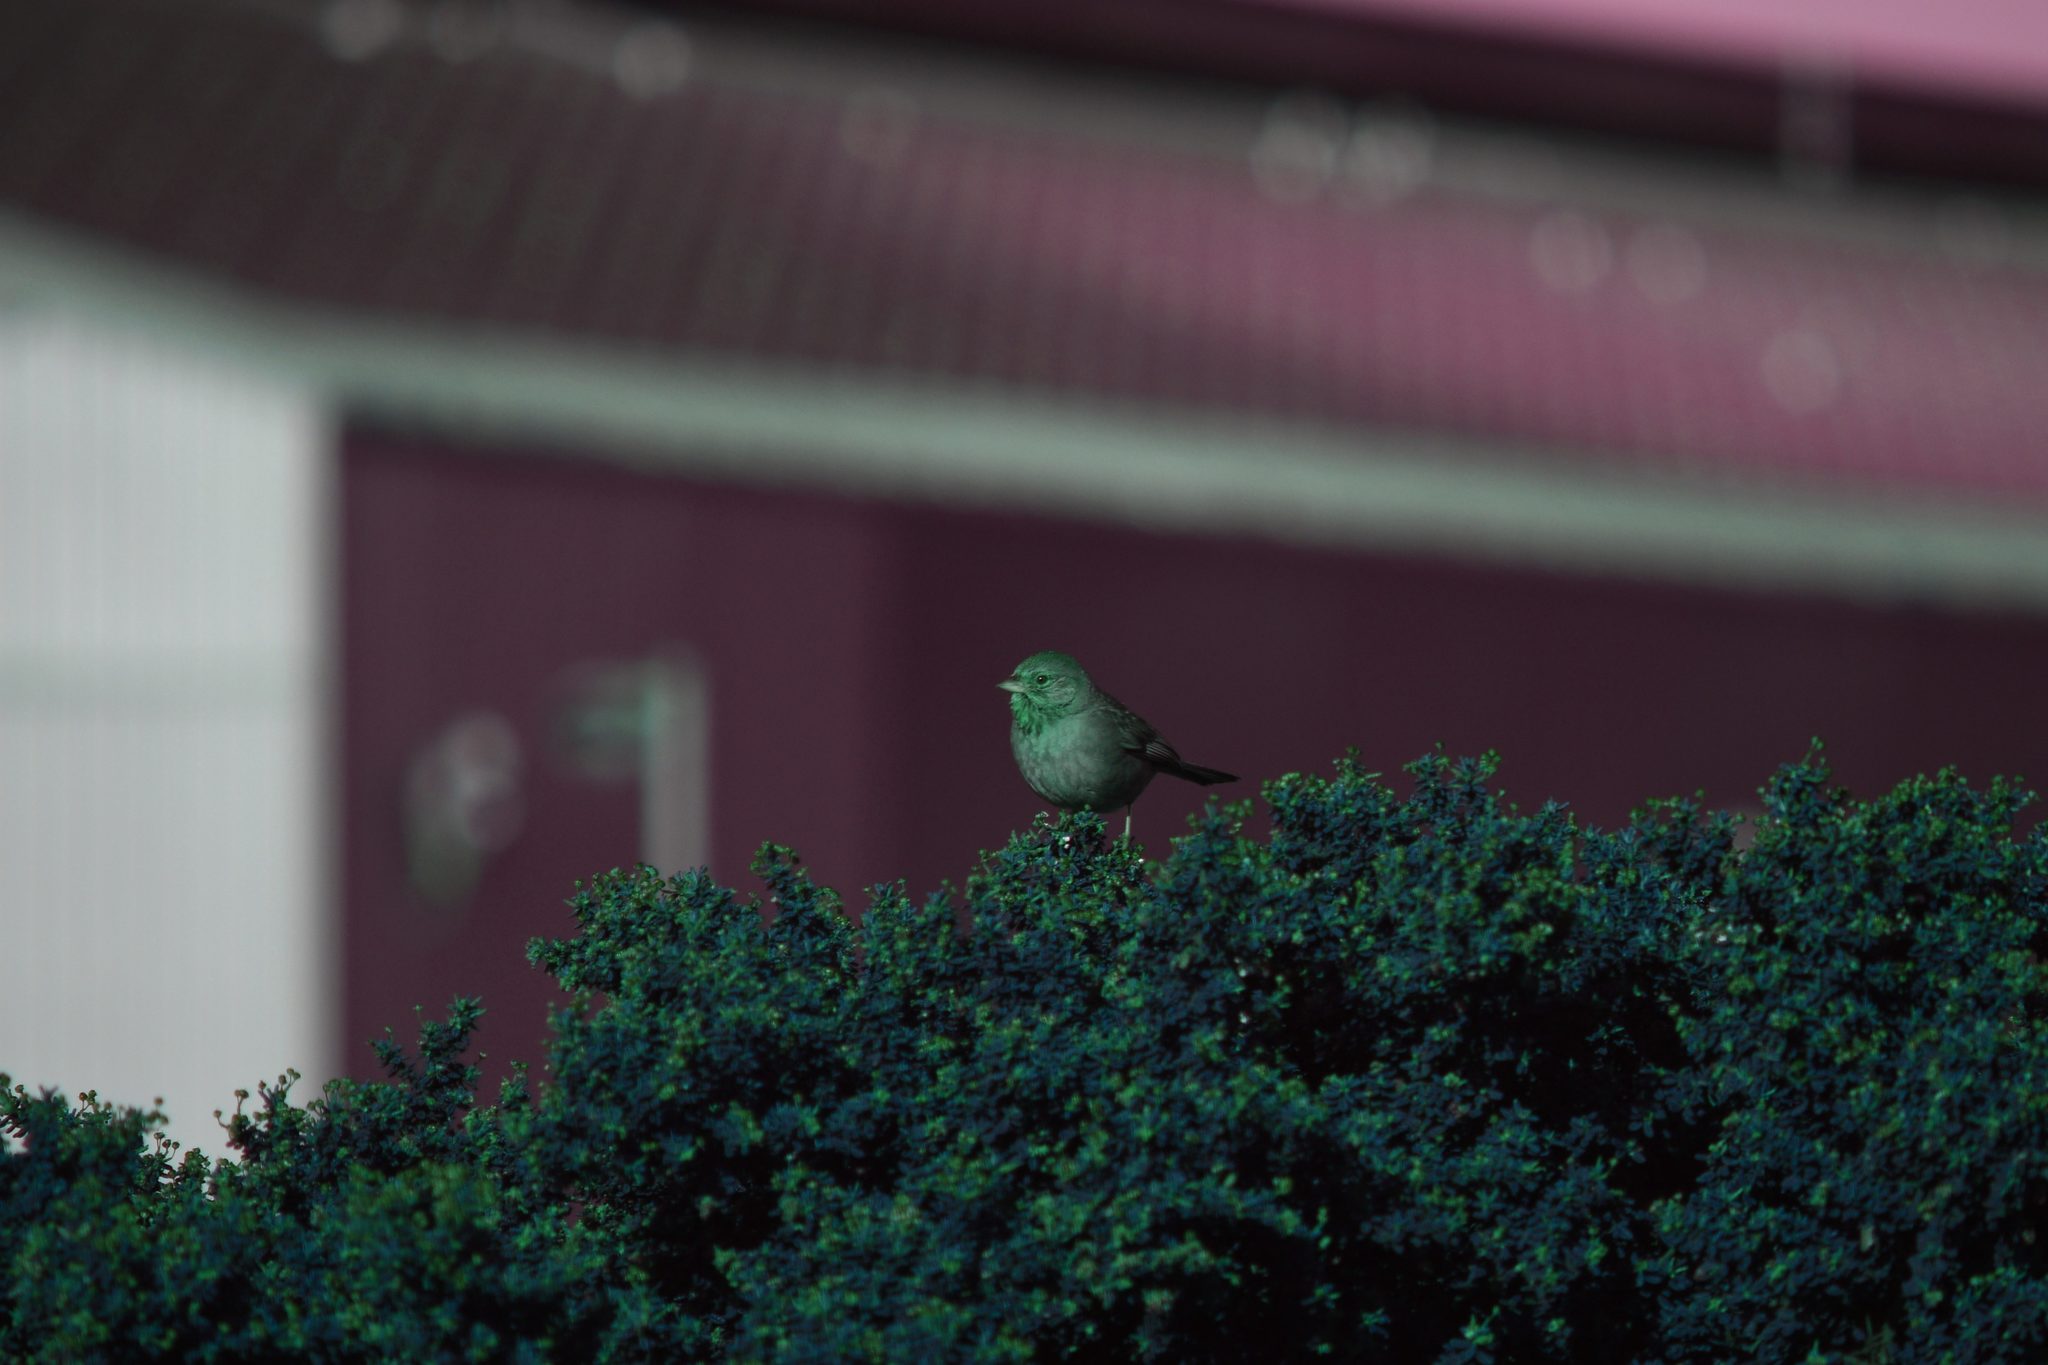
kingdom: Animalia
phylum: Chordata
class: Aves
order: Passeriformes
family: Passerellidae
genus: Melozone
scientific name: Melozone crissalis
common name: California towhee
